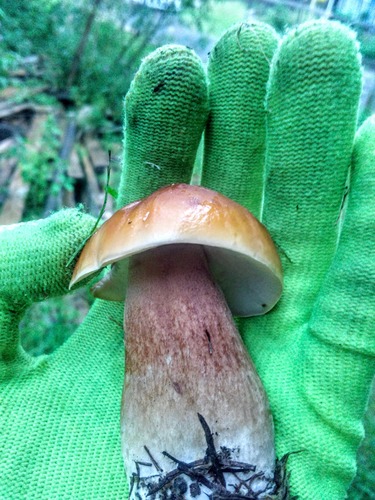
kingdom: Fungi
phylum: Basidiomycota
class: Agaricomycetes
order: Boletales
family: Boletaceae
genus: Boletus
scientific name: Boletus edulis
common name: Cep
